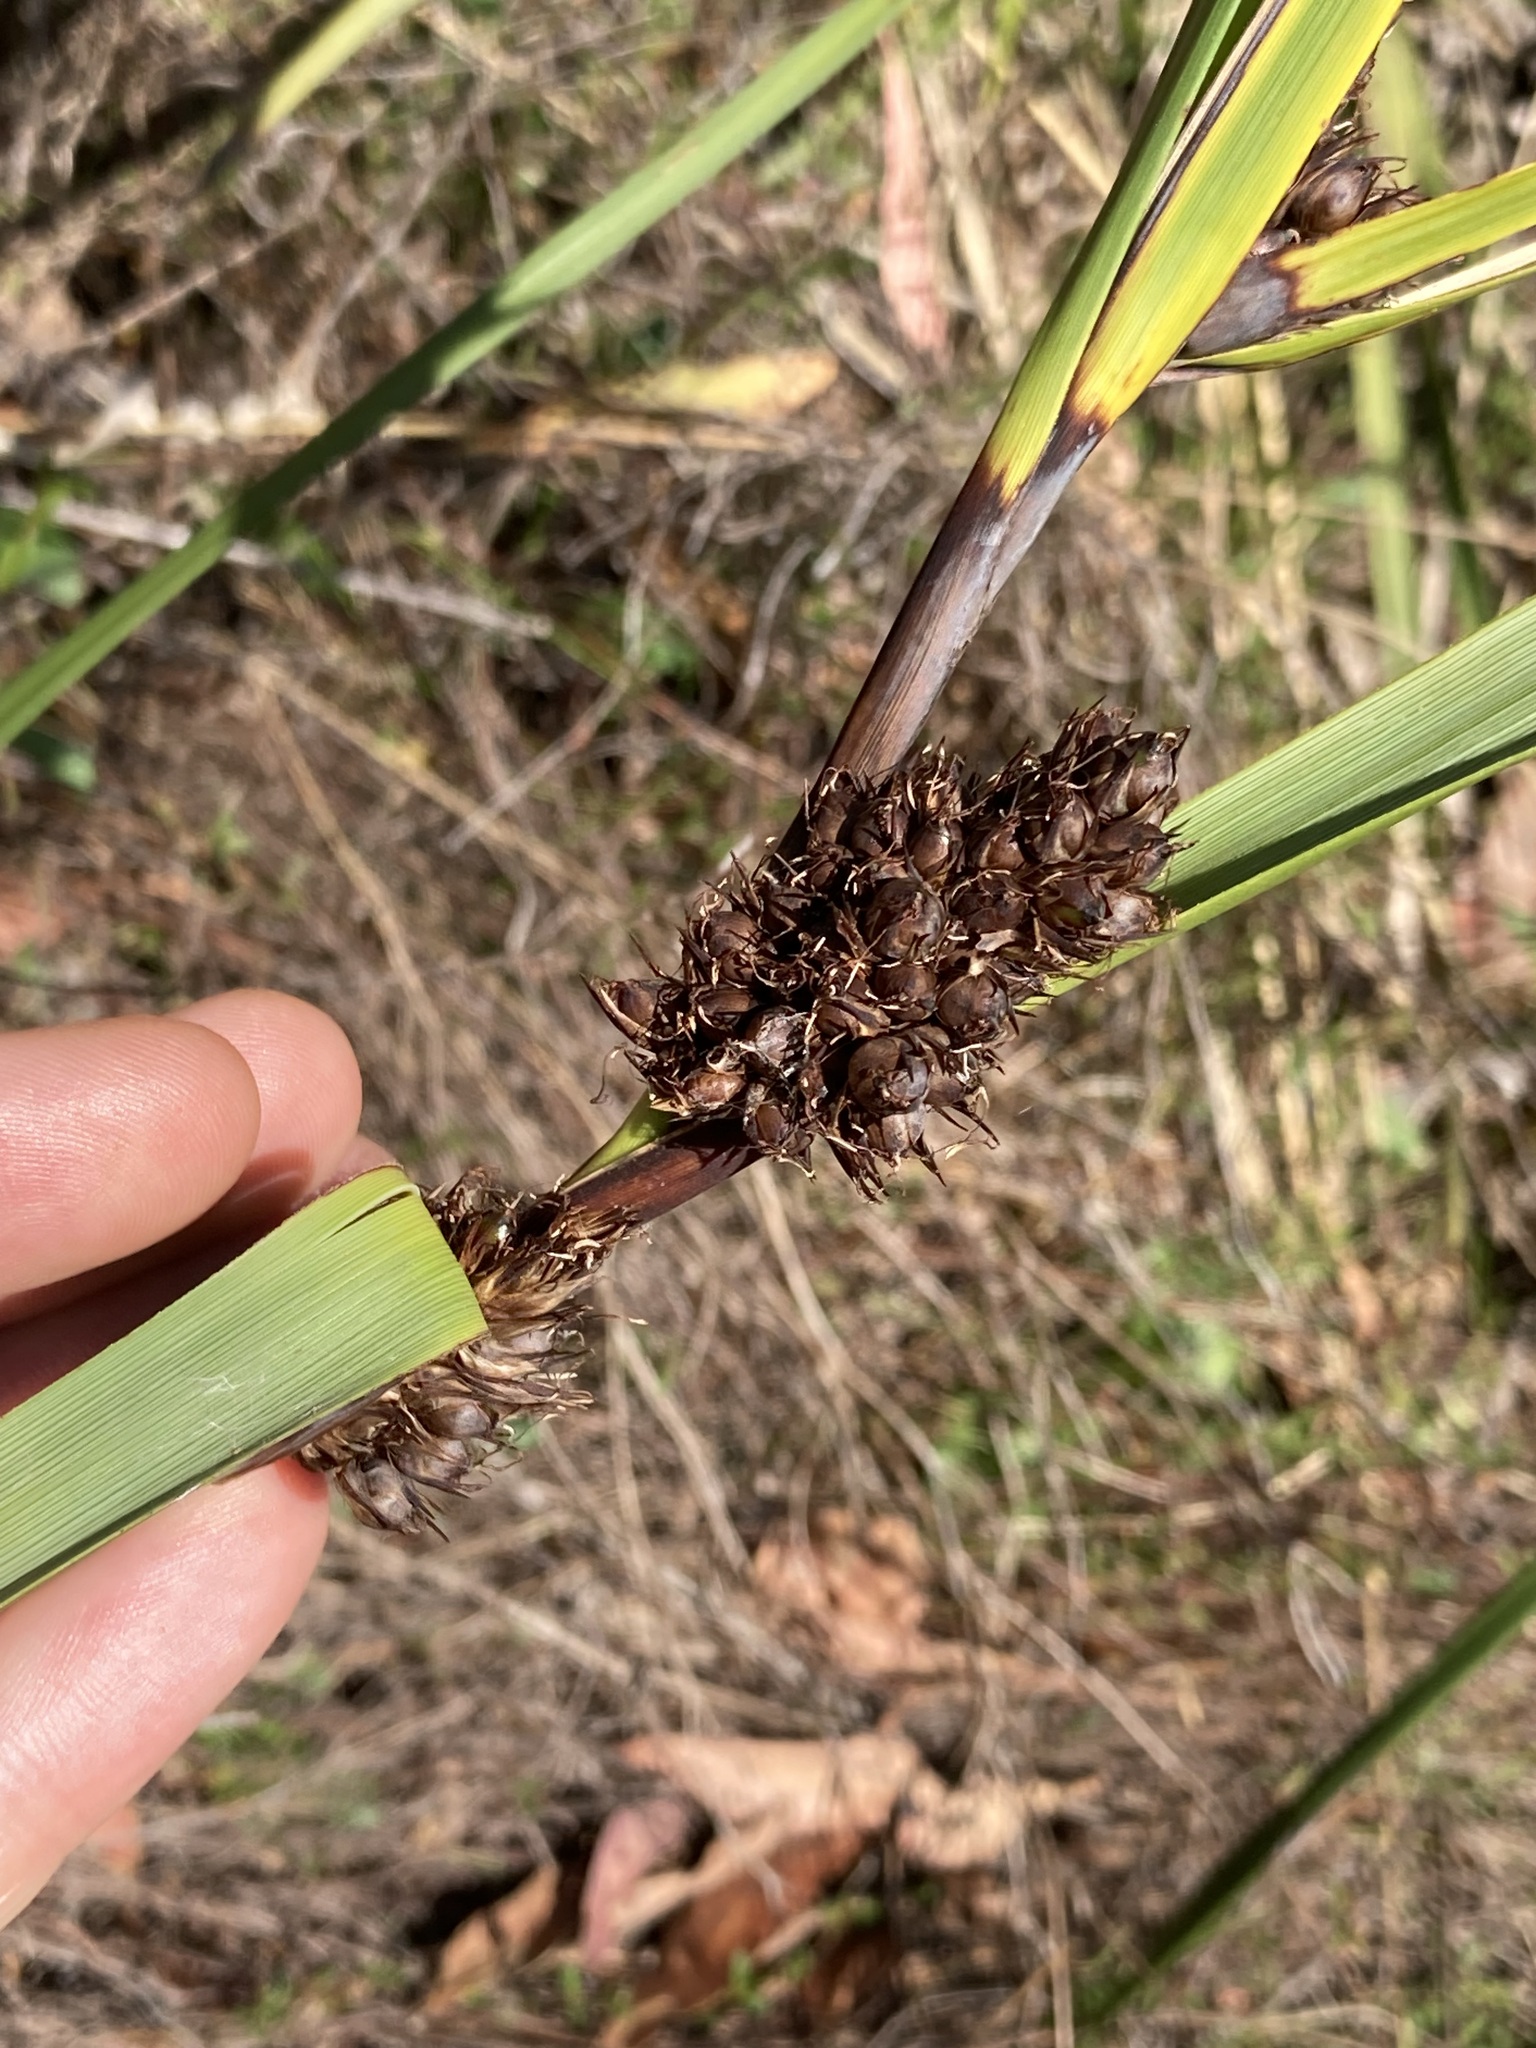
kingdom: Plantae
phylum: Tracheophyta
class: Liliopsida
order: Poales
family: Cyperaceae
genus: Gahnia
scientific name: Gahnia aspera
